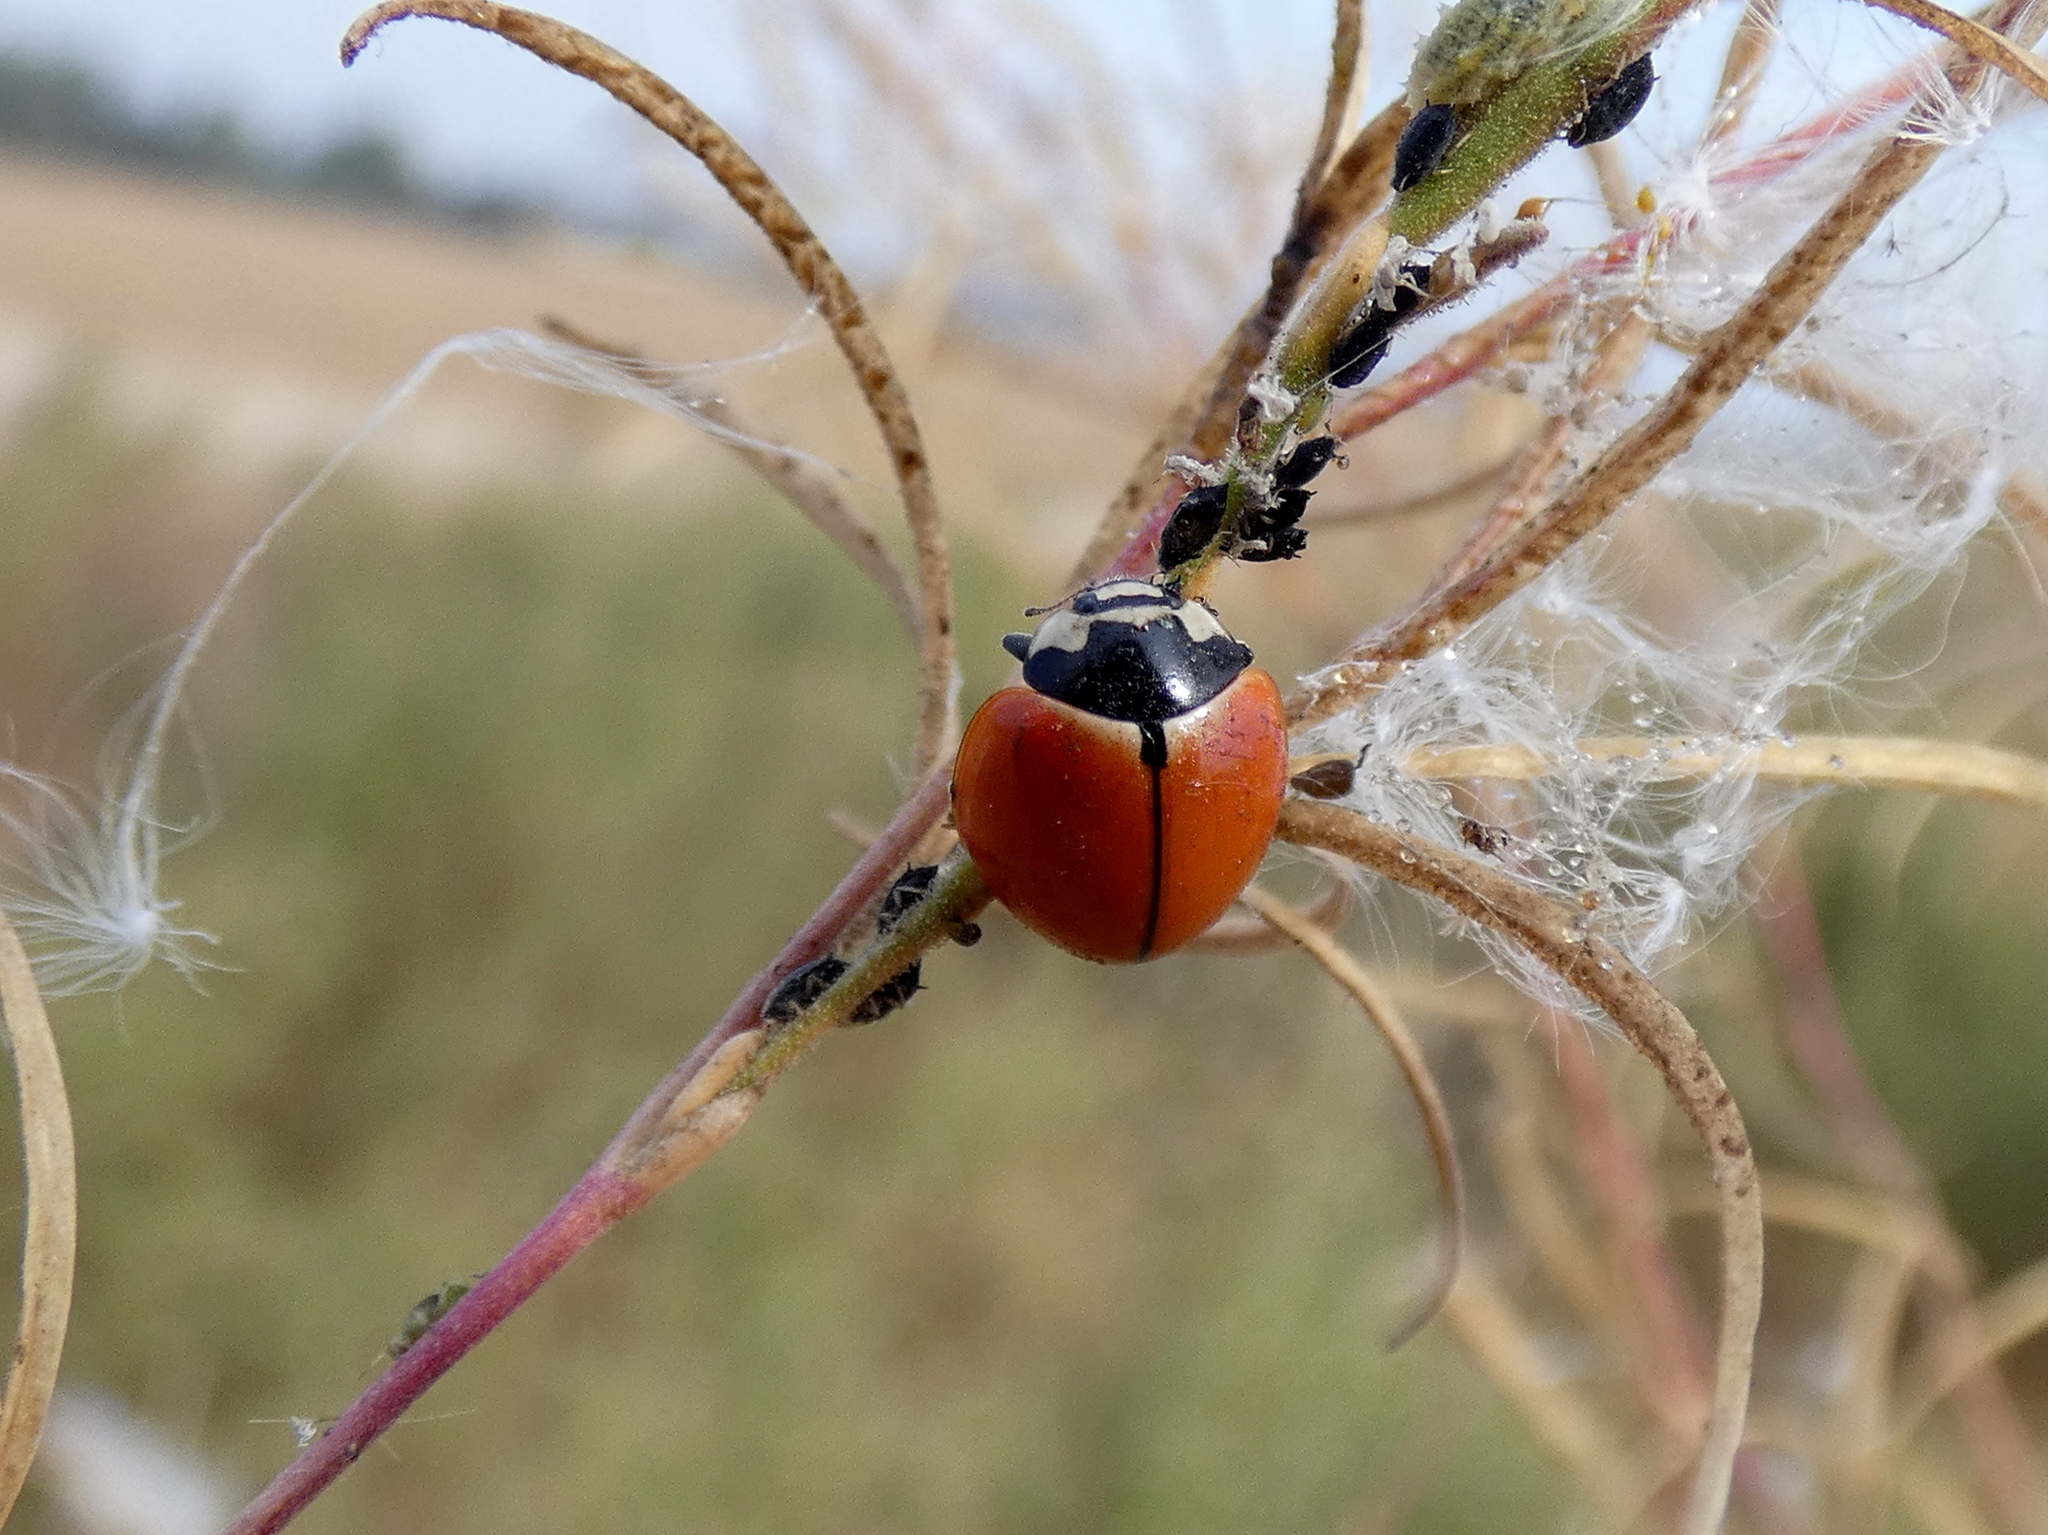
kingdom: Animalia
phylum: Arthropoda
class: Insecta
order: Coleoptera
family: Coccinellidae
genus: Coccinella
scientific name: Coccinella novemnotata
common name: Nine-spotted lady beetle
